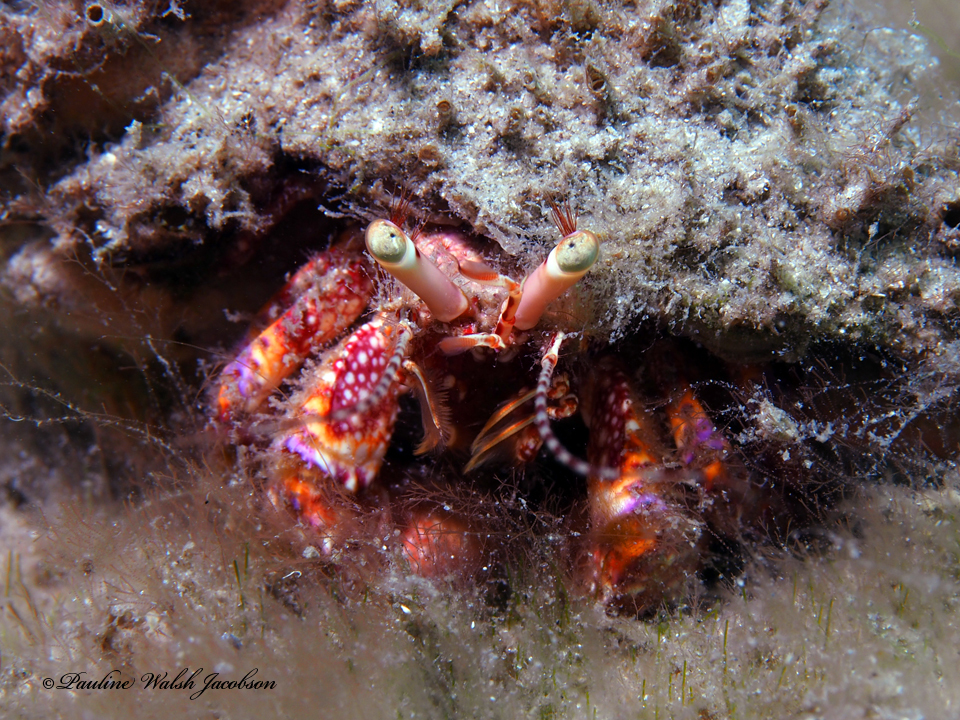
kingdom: Animalia
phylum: Arthropoda
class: Malacostraca
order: Decapoda
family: Diogenidae
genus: Petrochirus
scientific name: Petrochirus diogenes
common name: Giant hermit crab
